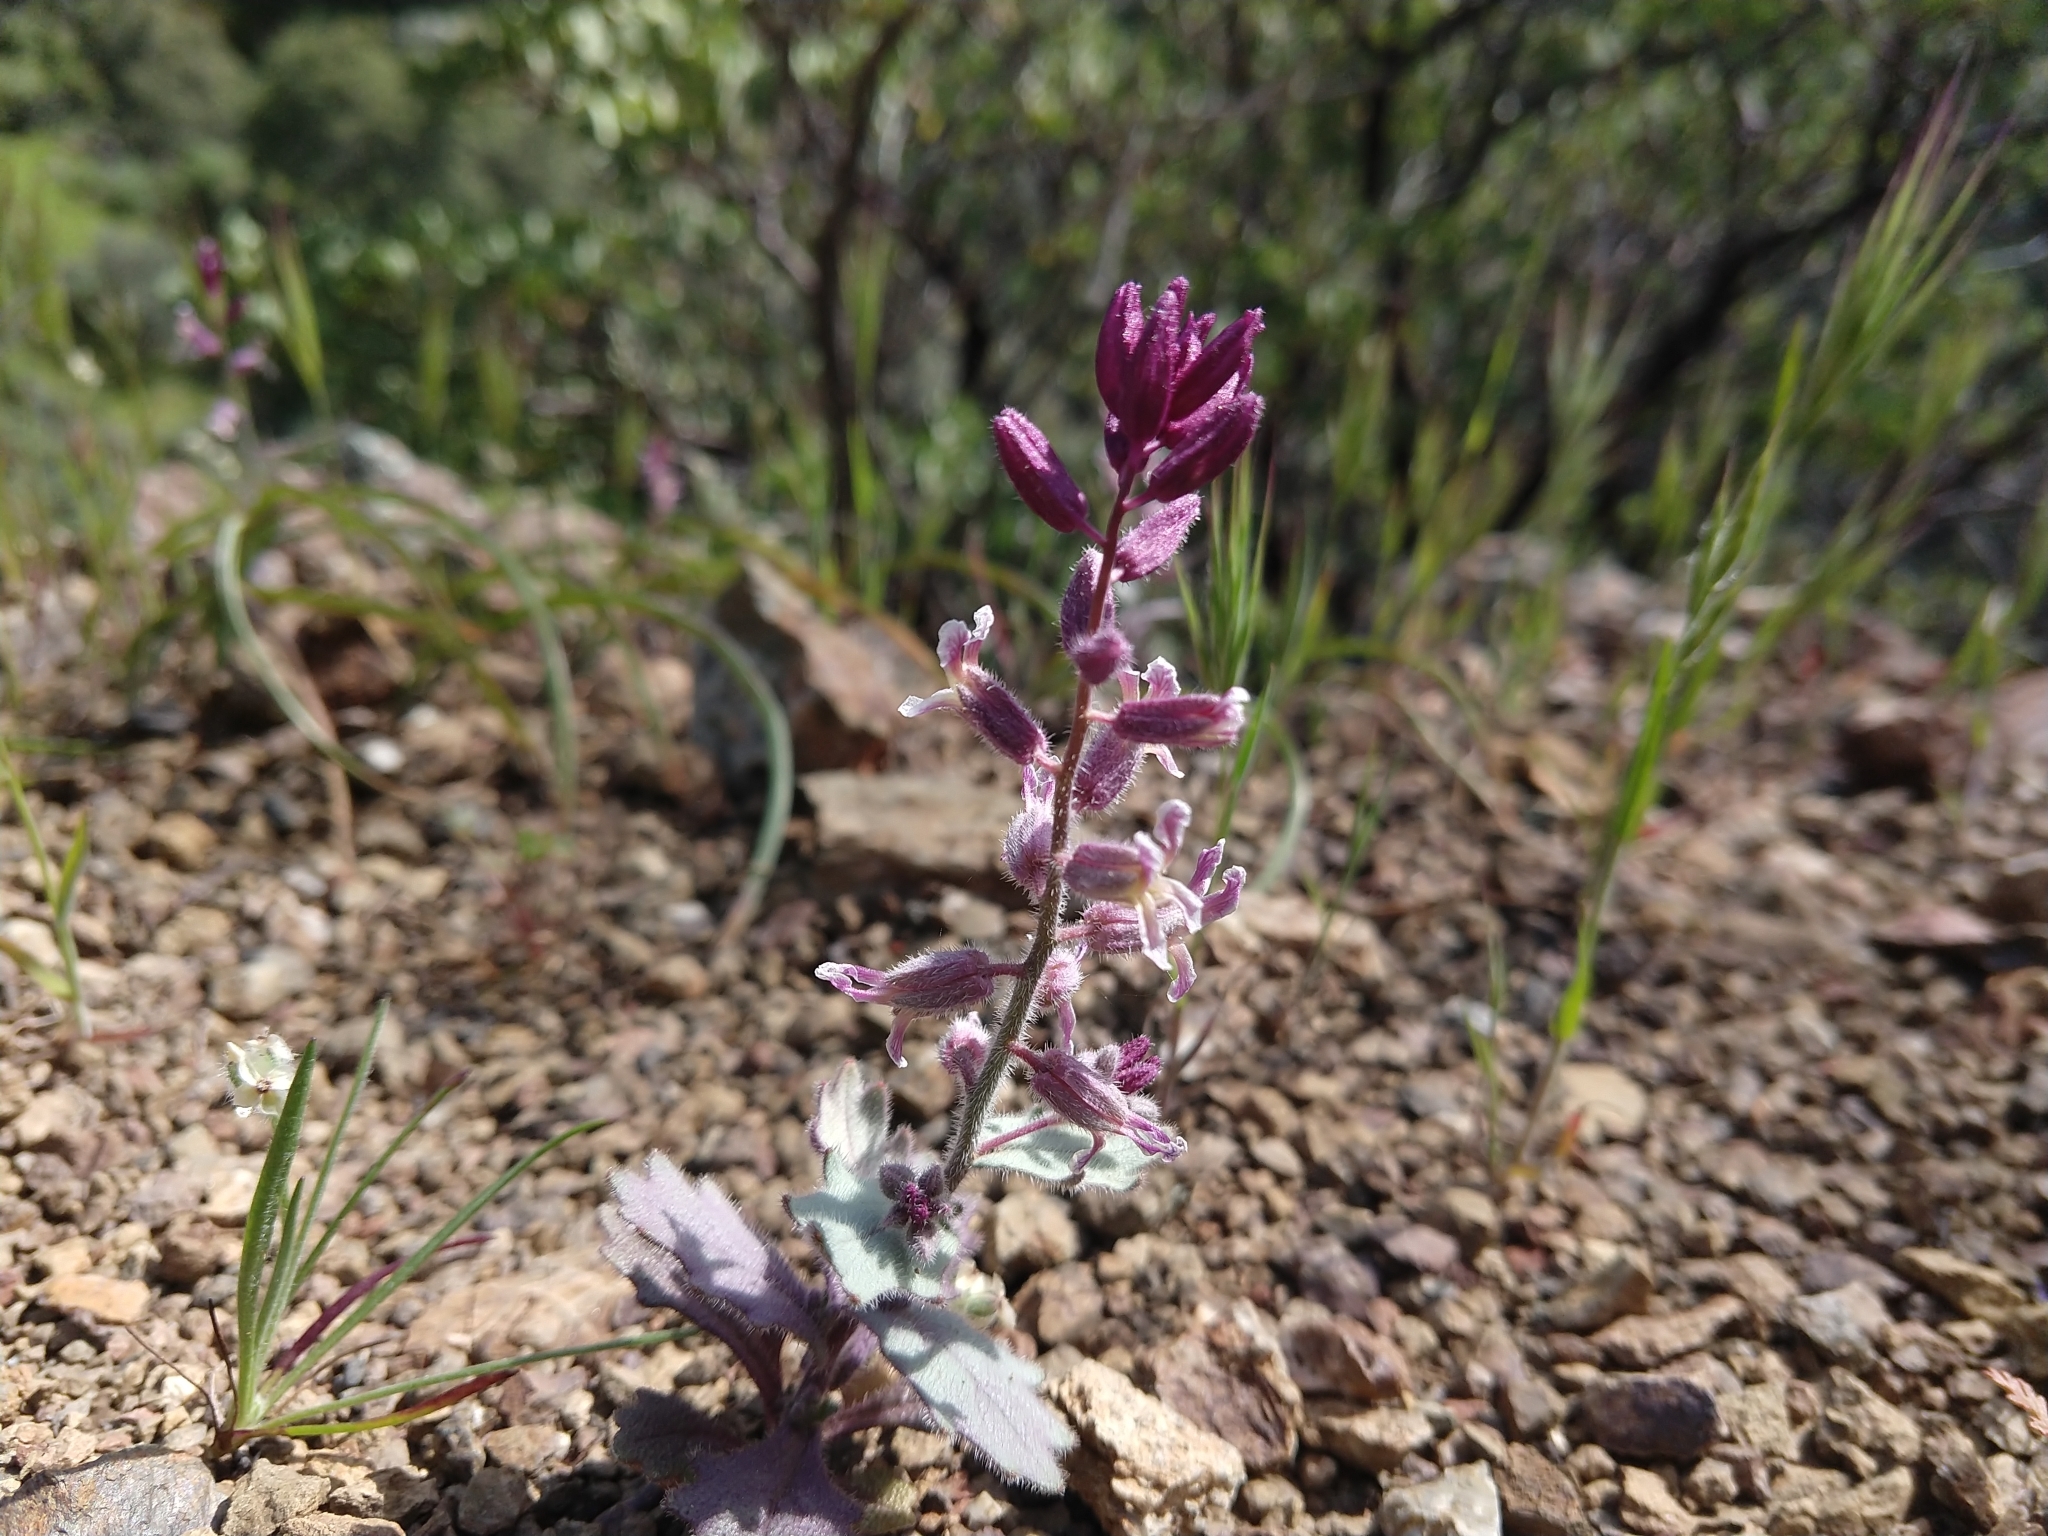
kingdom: Plantae
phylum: Tracheophyta
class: Magnoliopsida
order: Brassicales
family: Brassicaceae
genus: Streptanthus
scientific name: Streptanthus hispidus
